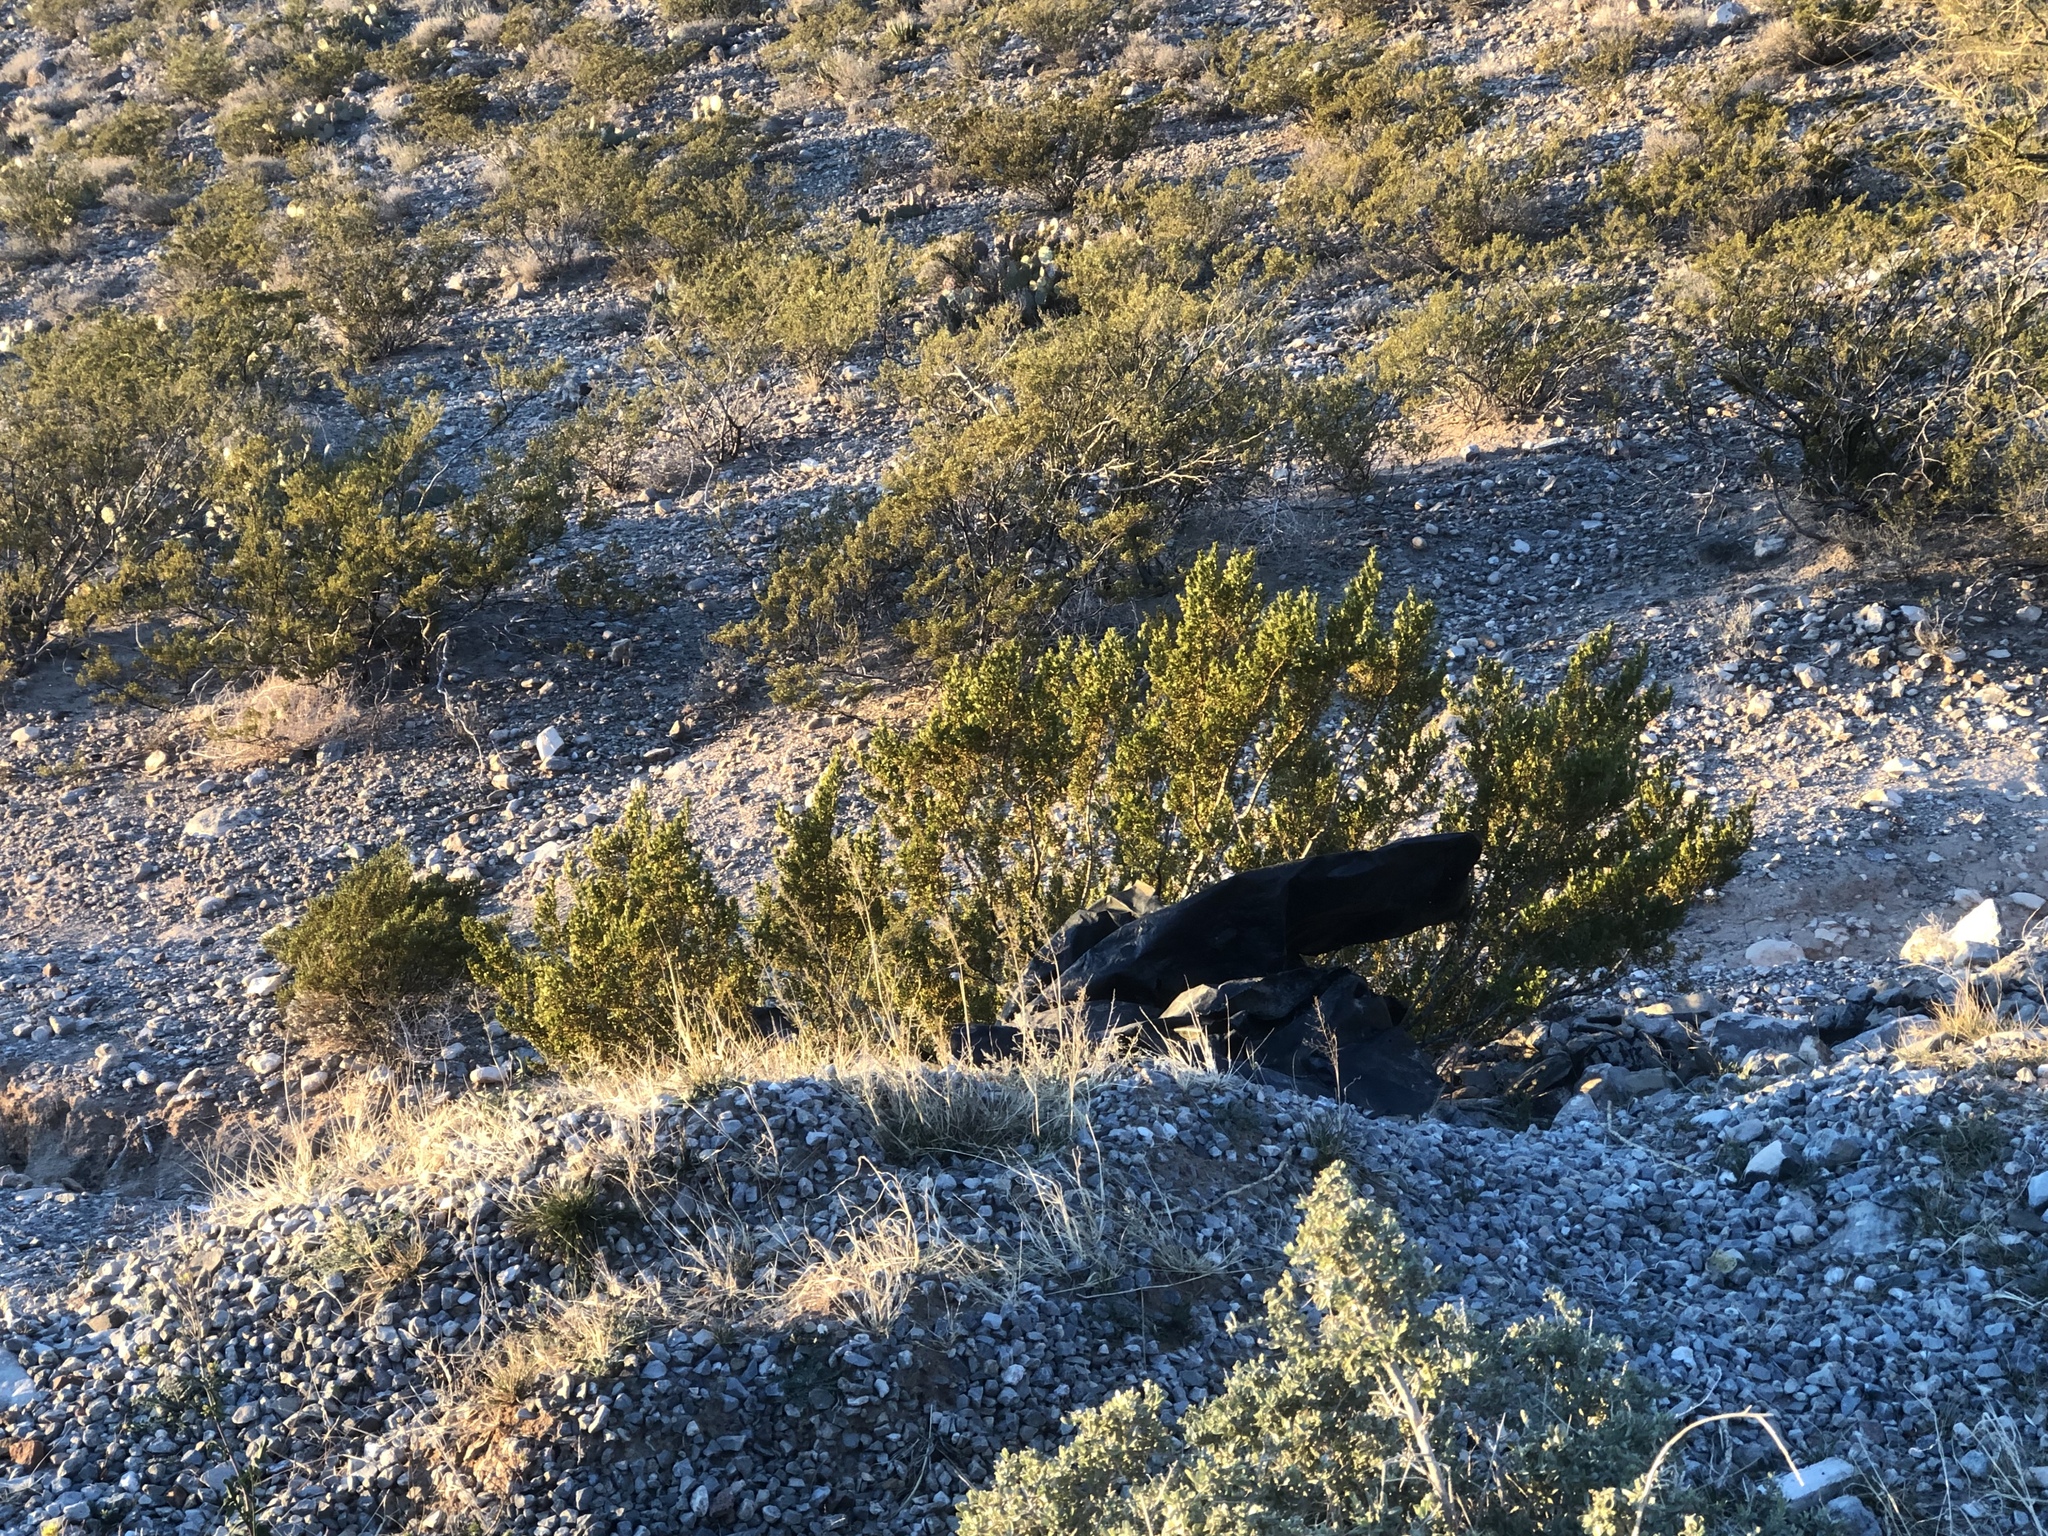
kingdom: Plantae
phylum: Tracheophyta
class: Magnoliopsida
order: Zygophyllales
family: Zygophyllaceae
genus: Larrea
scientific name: Larrea tridentata
